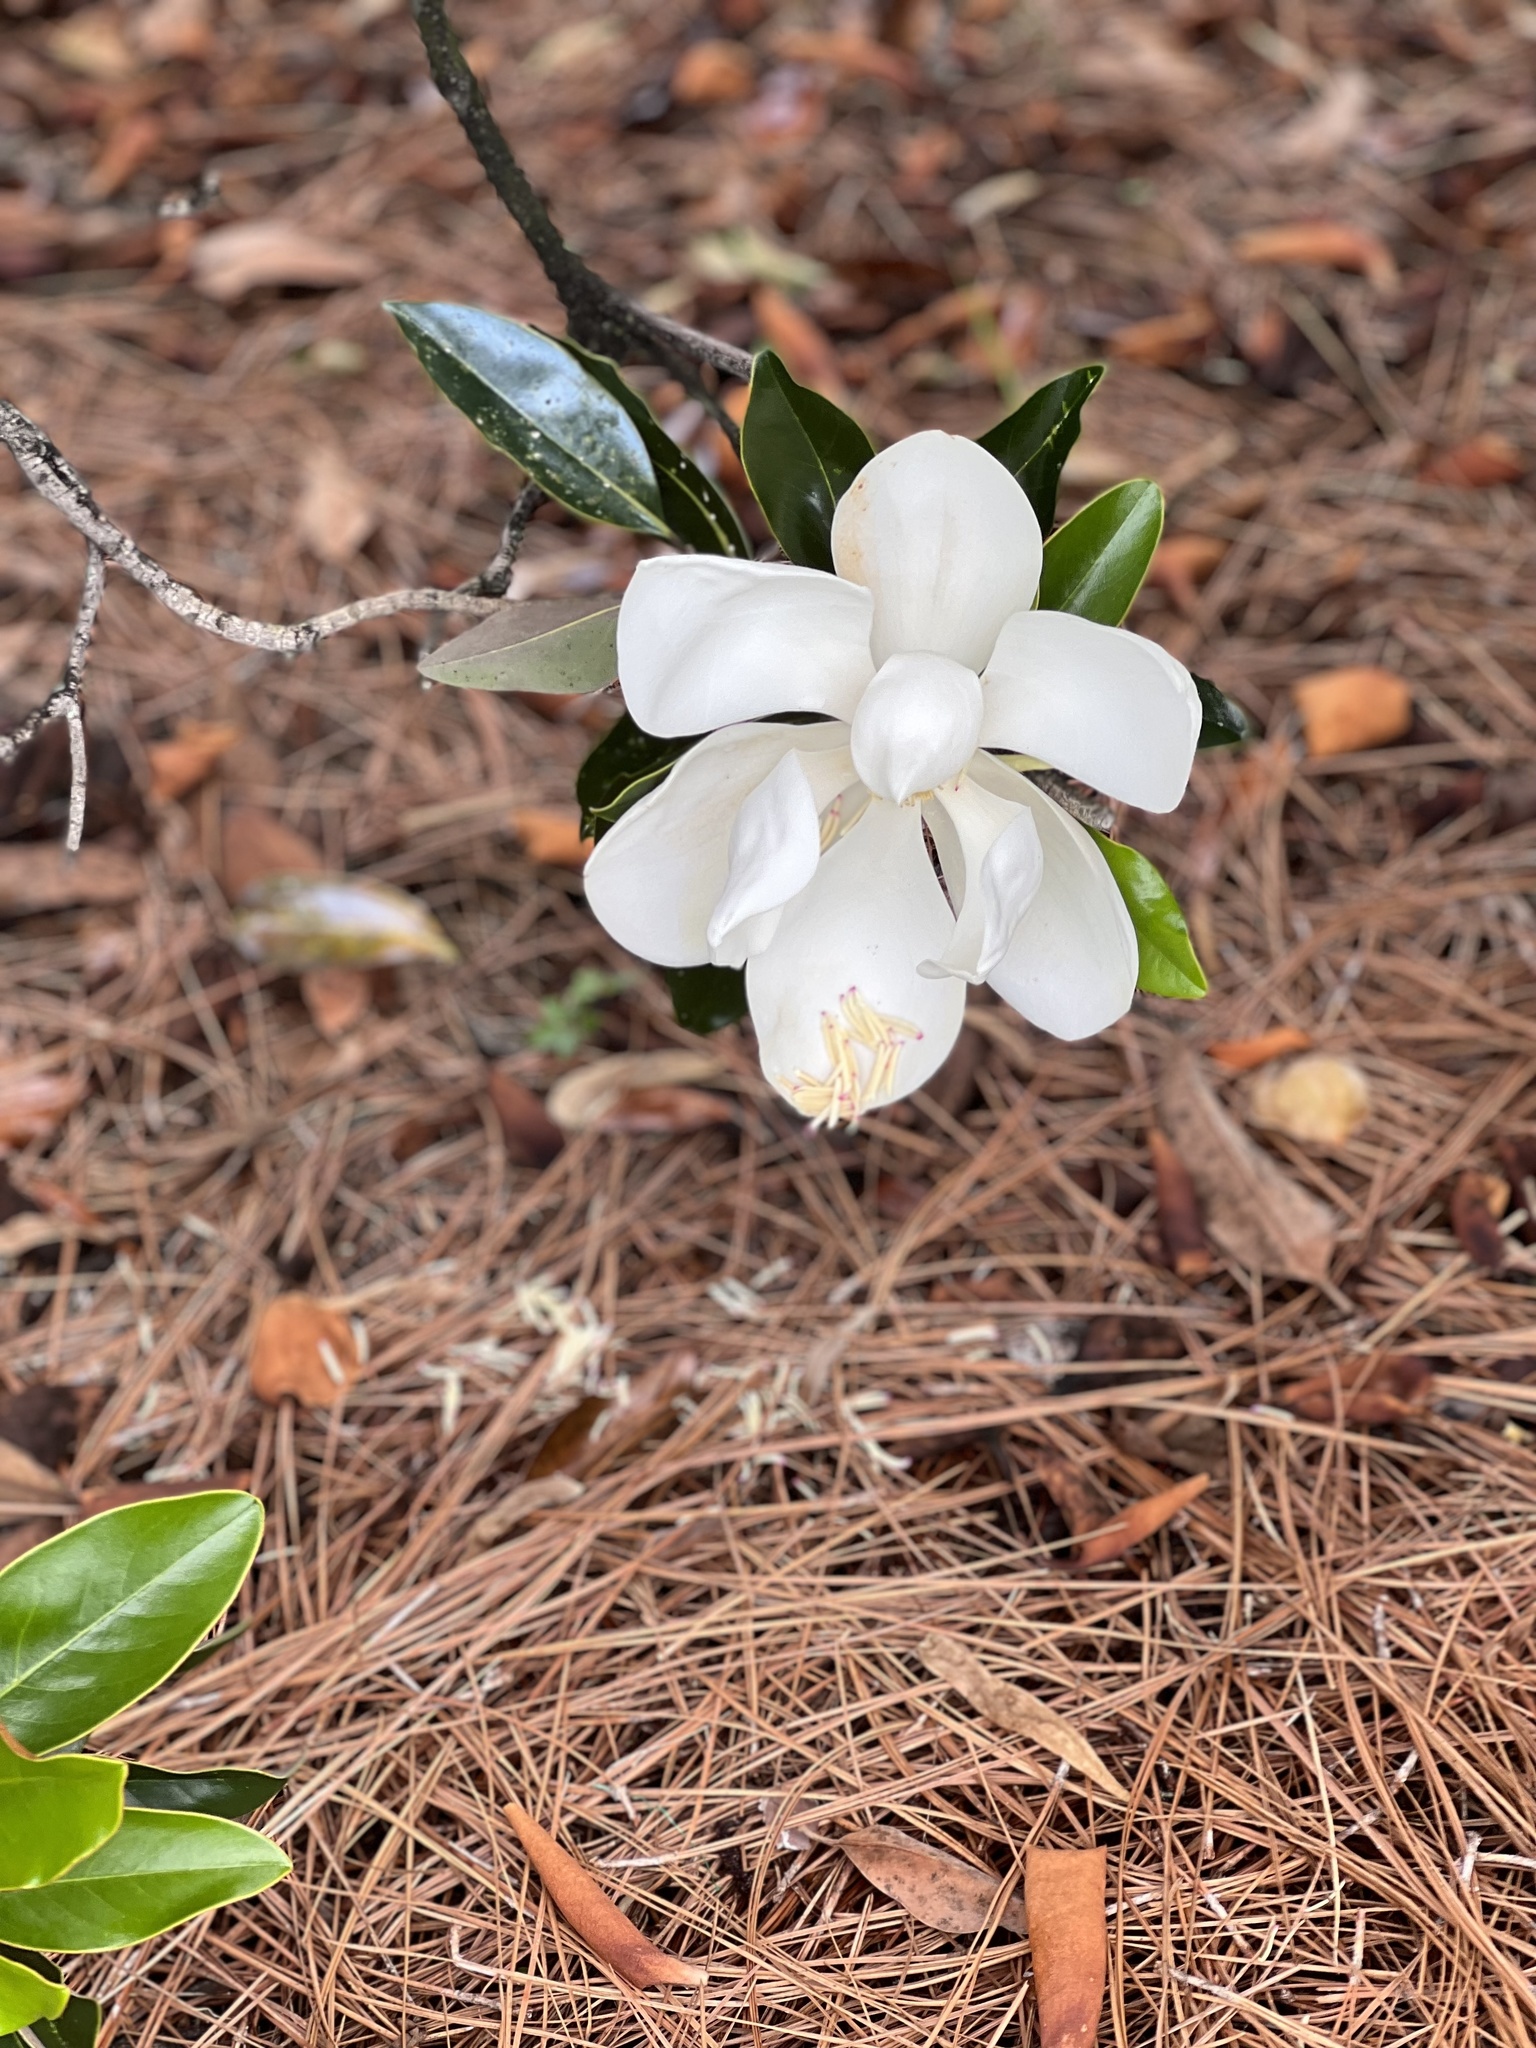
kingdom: Plantae
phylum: Tracheophyta
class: Magnoliopsida
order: Magnoliales
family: Magnoliaceae
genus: Magnolia
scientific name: Magnolia grandiflora
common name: Southern magnolia
